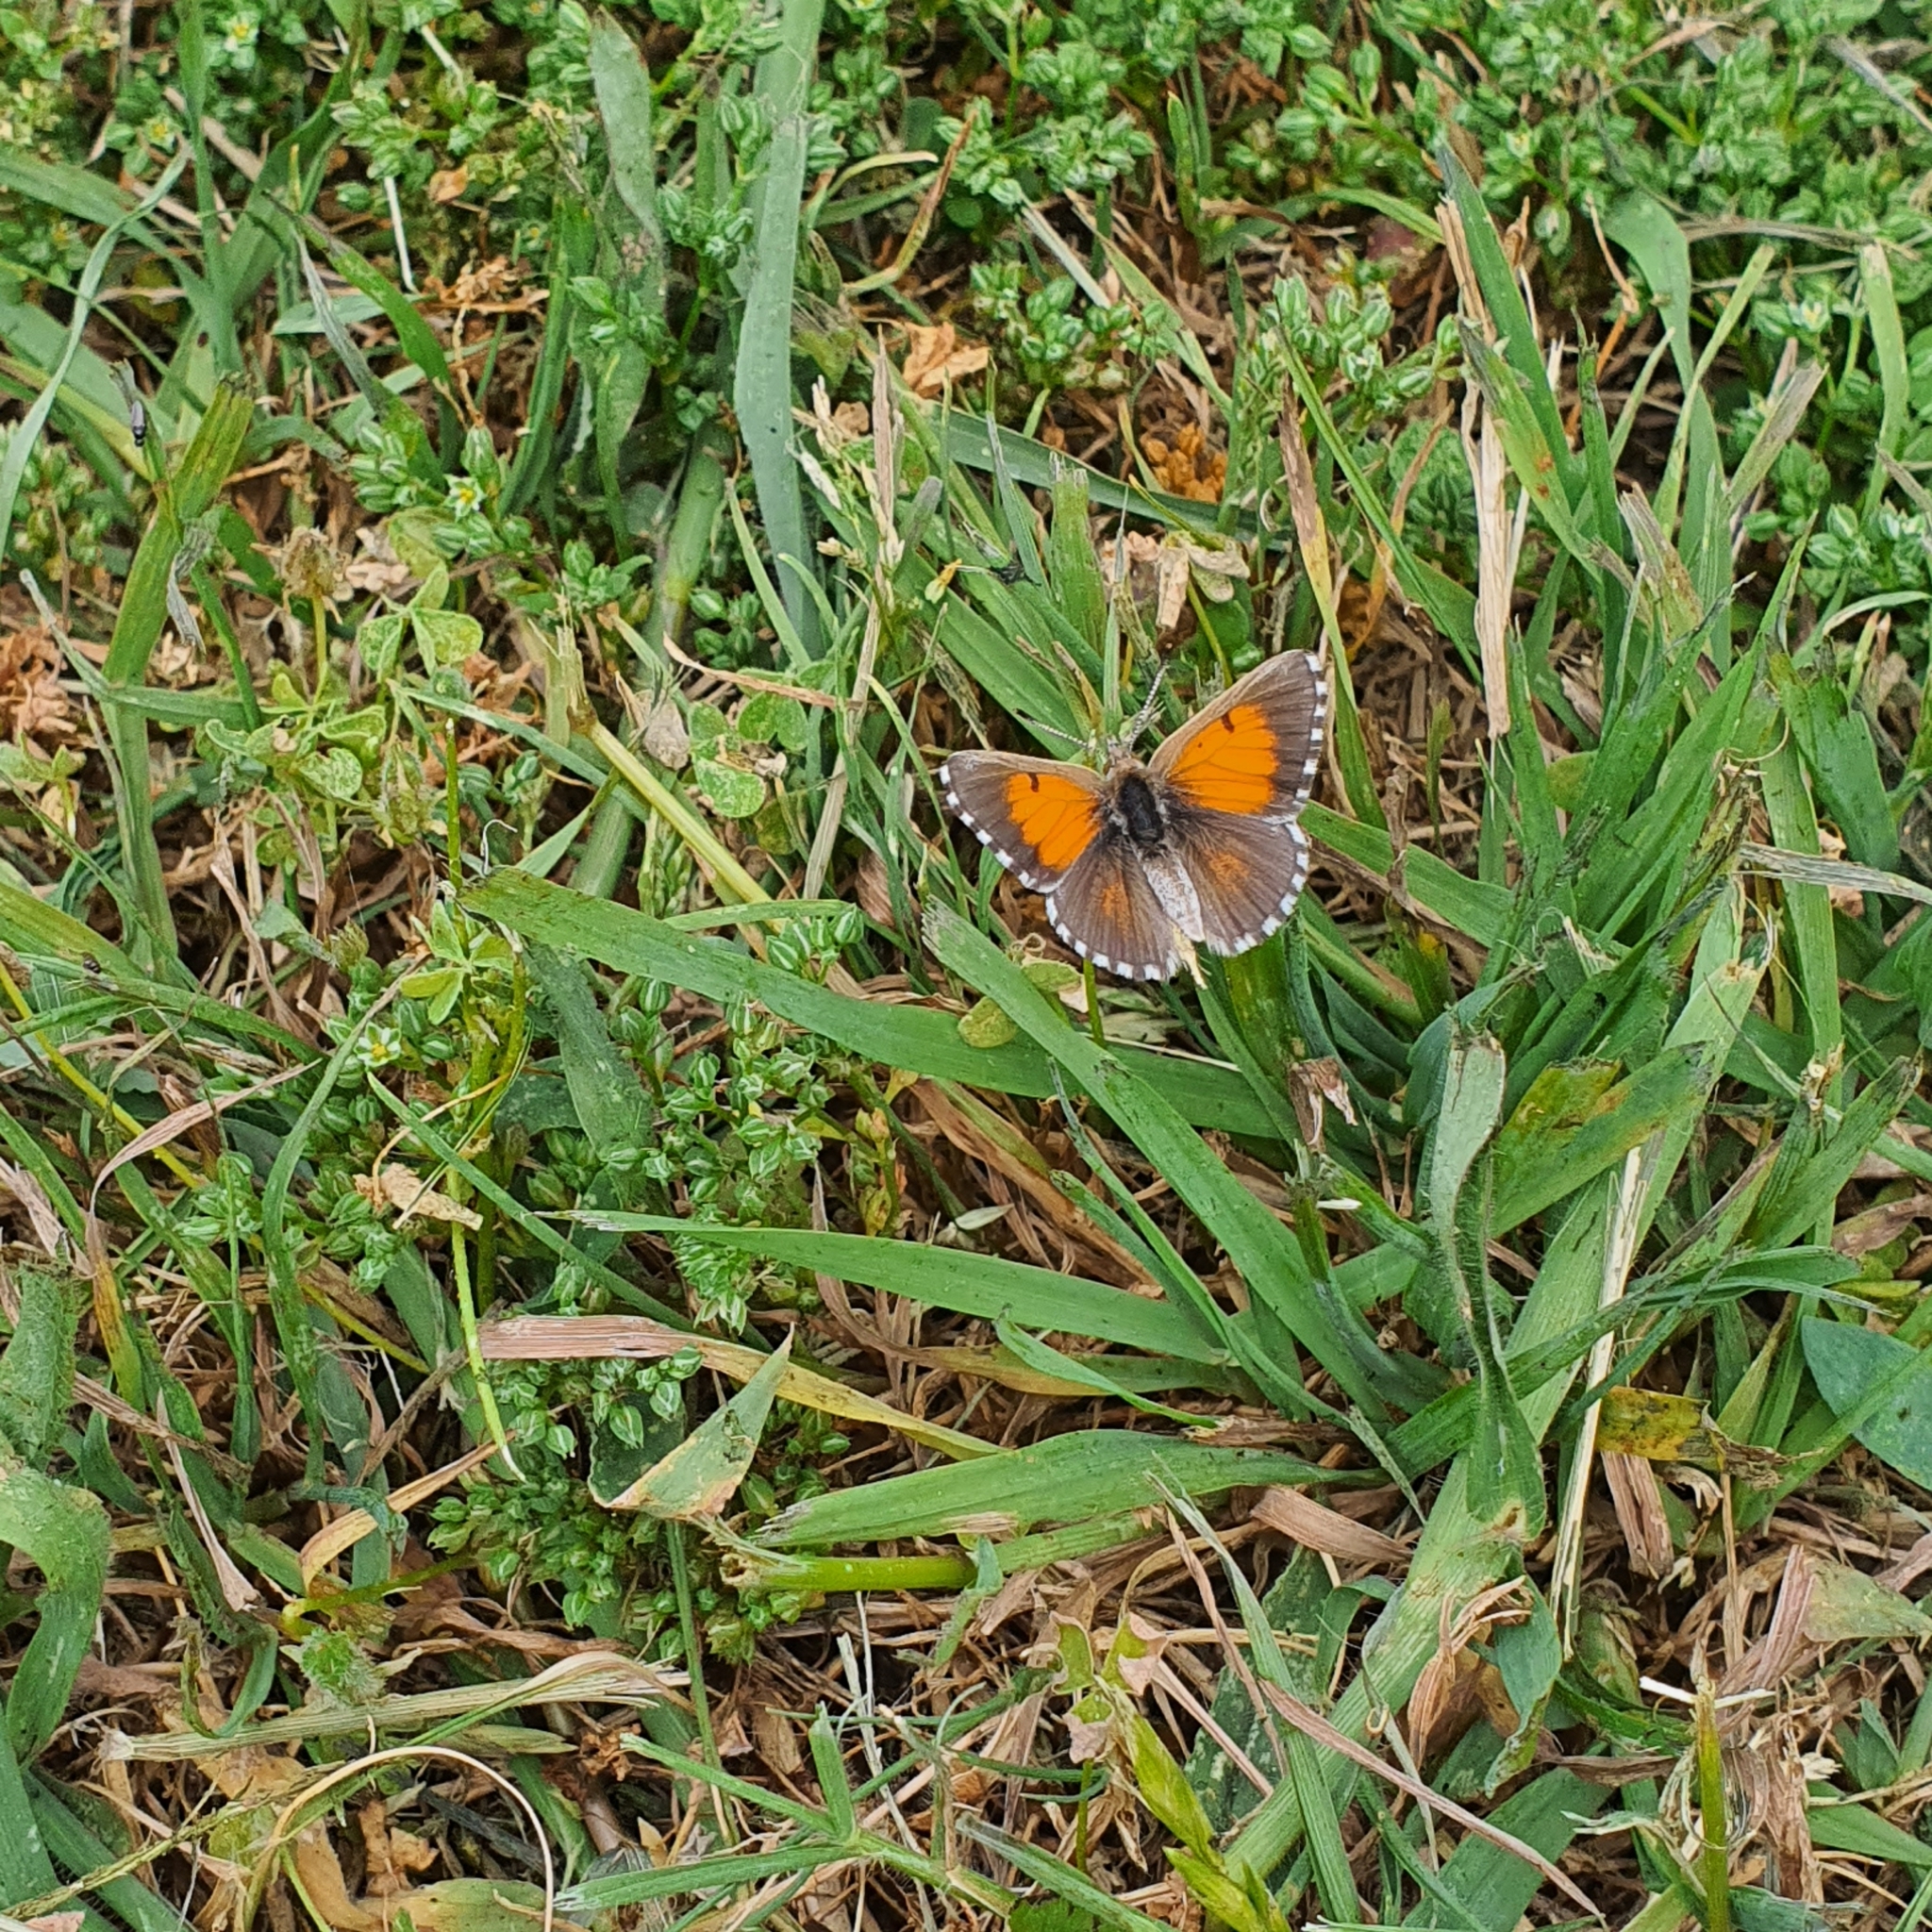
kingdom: Animalia
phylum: Arthropoda
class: Insecta
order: Lepidoptera
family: Lycaenidae
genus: Lucia
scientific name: Lucia limbaria
